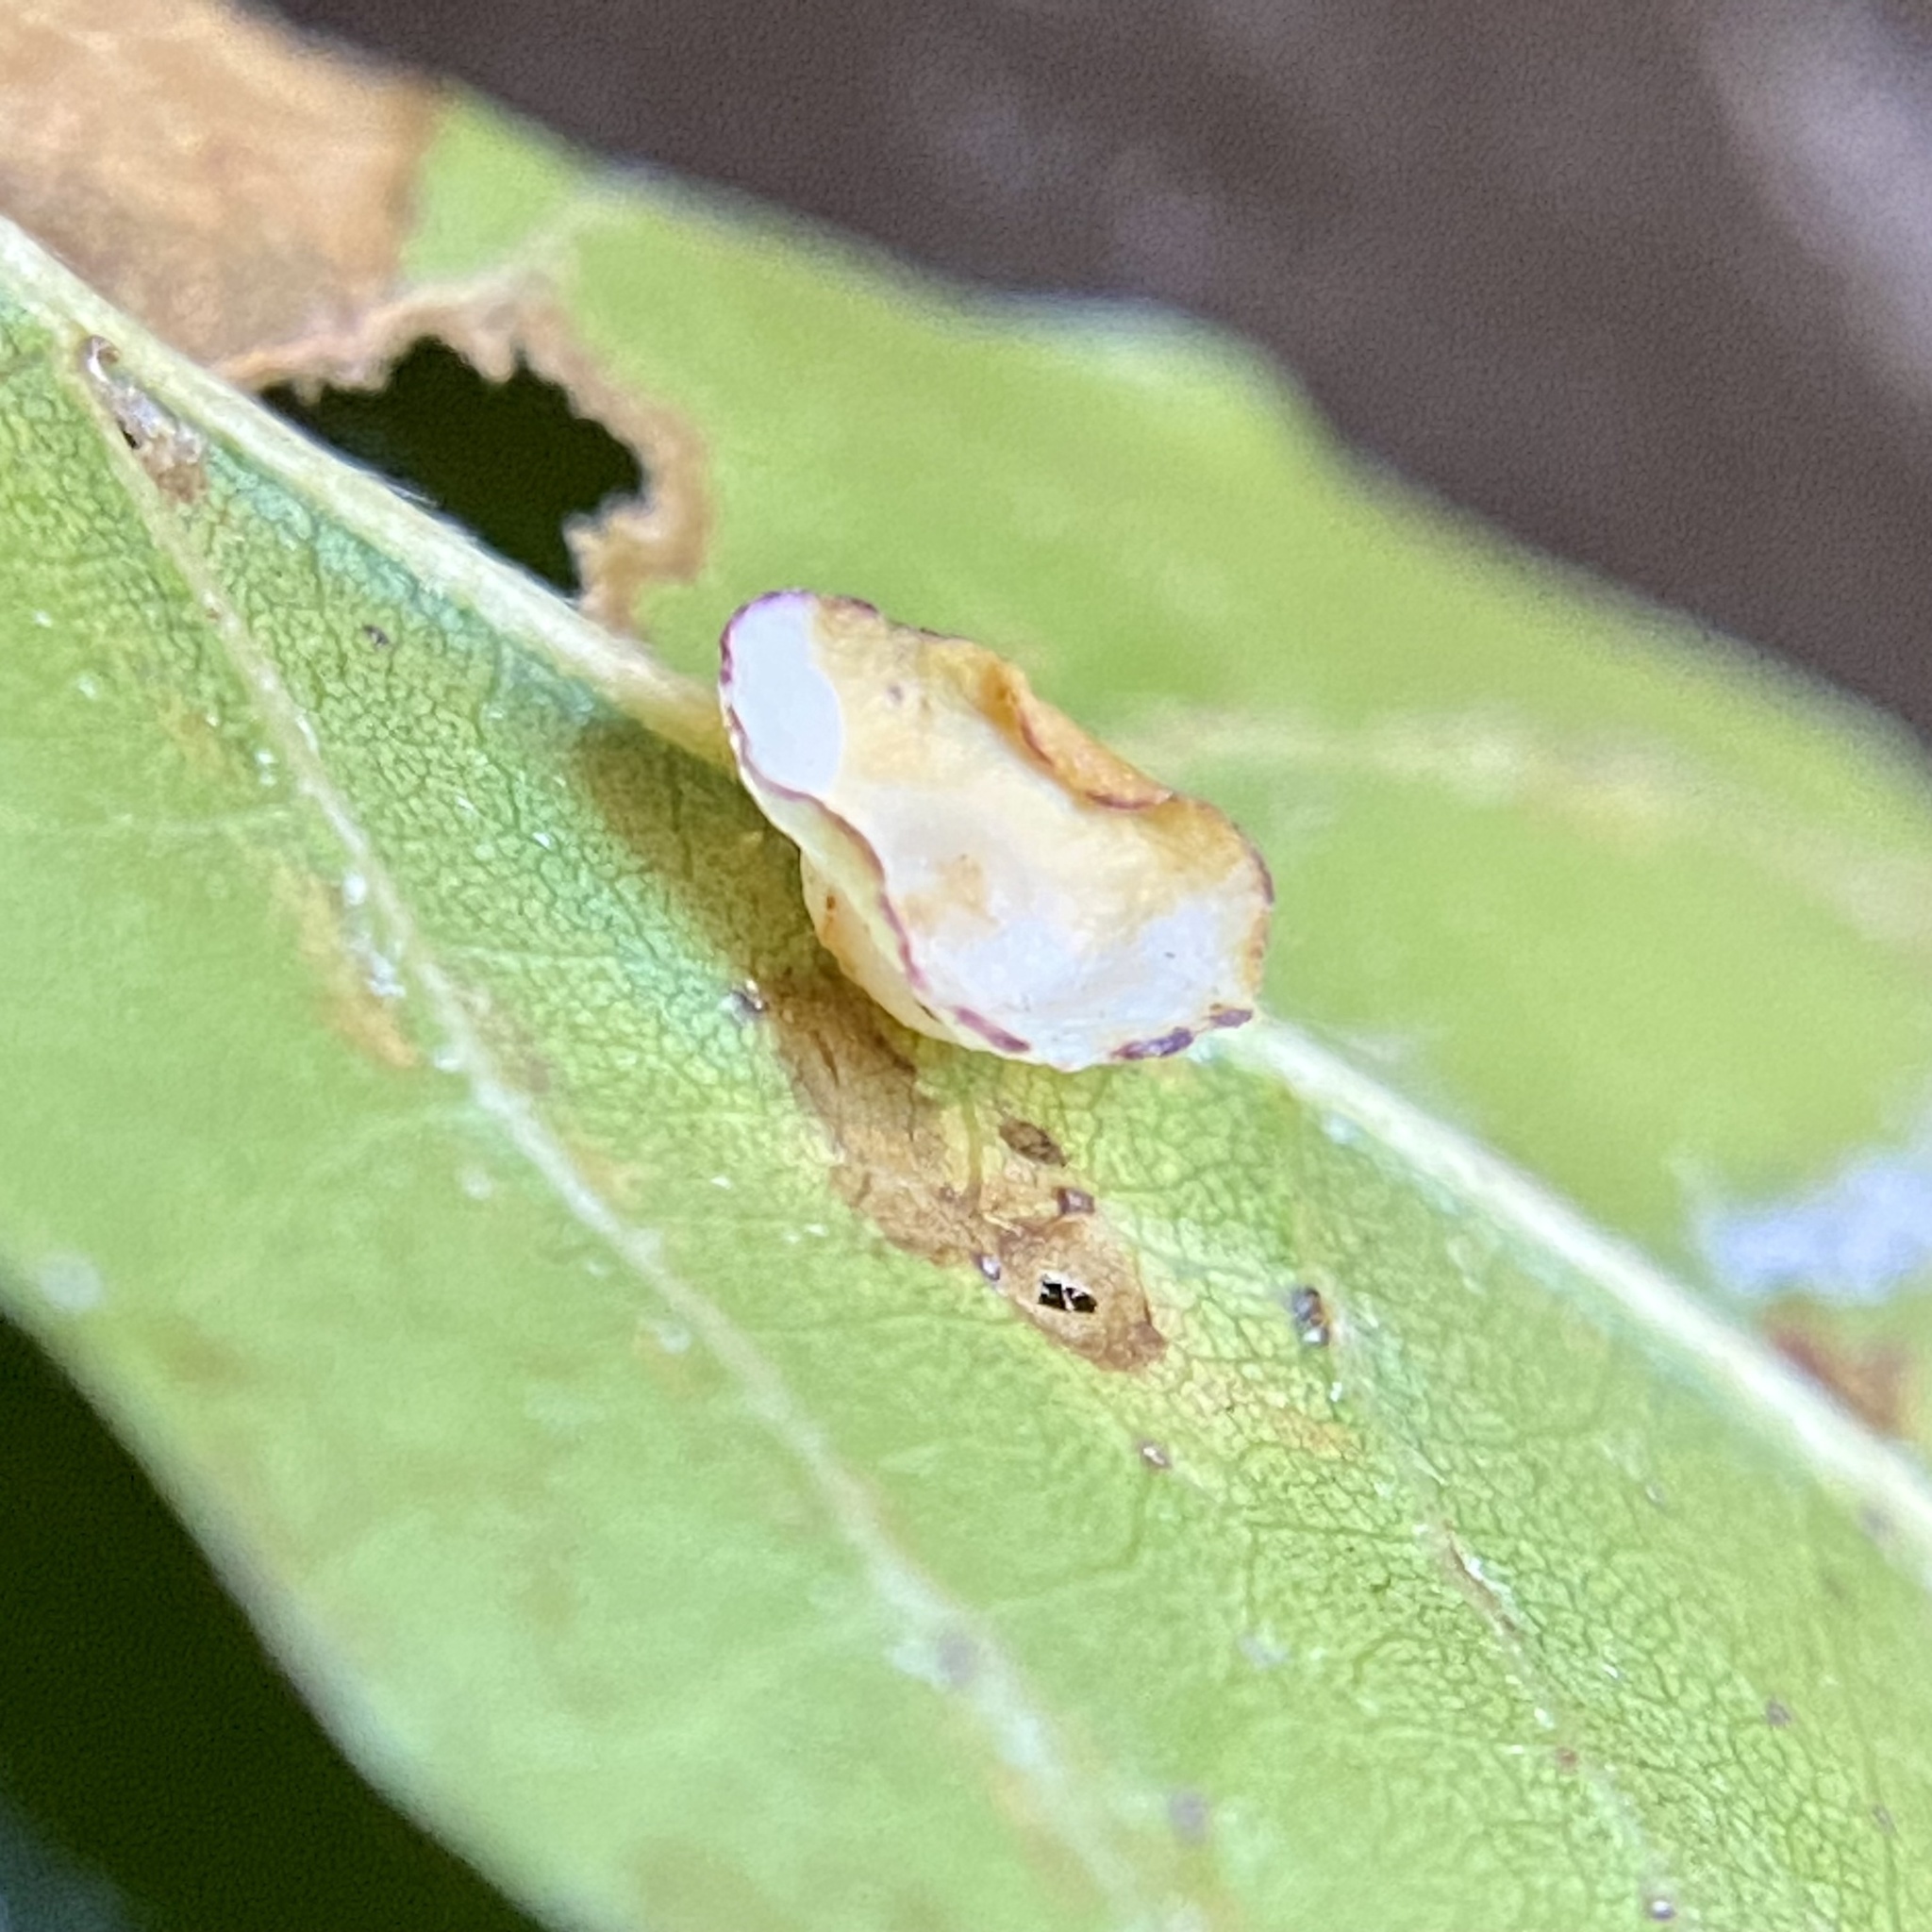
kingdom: Animalia
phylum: Arthropoda
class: Insecta
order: Hymenoptera
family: Cynipidae
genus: Phylloteras
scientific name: Phylloteras
